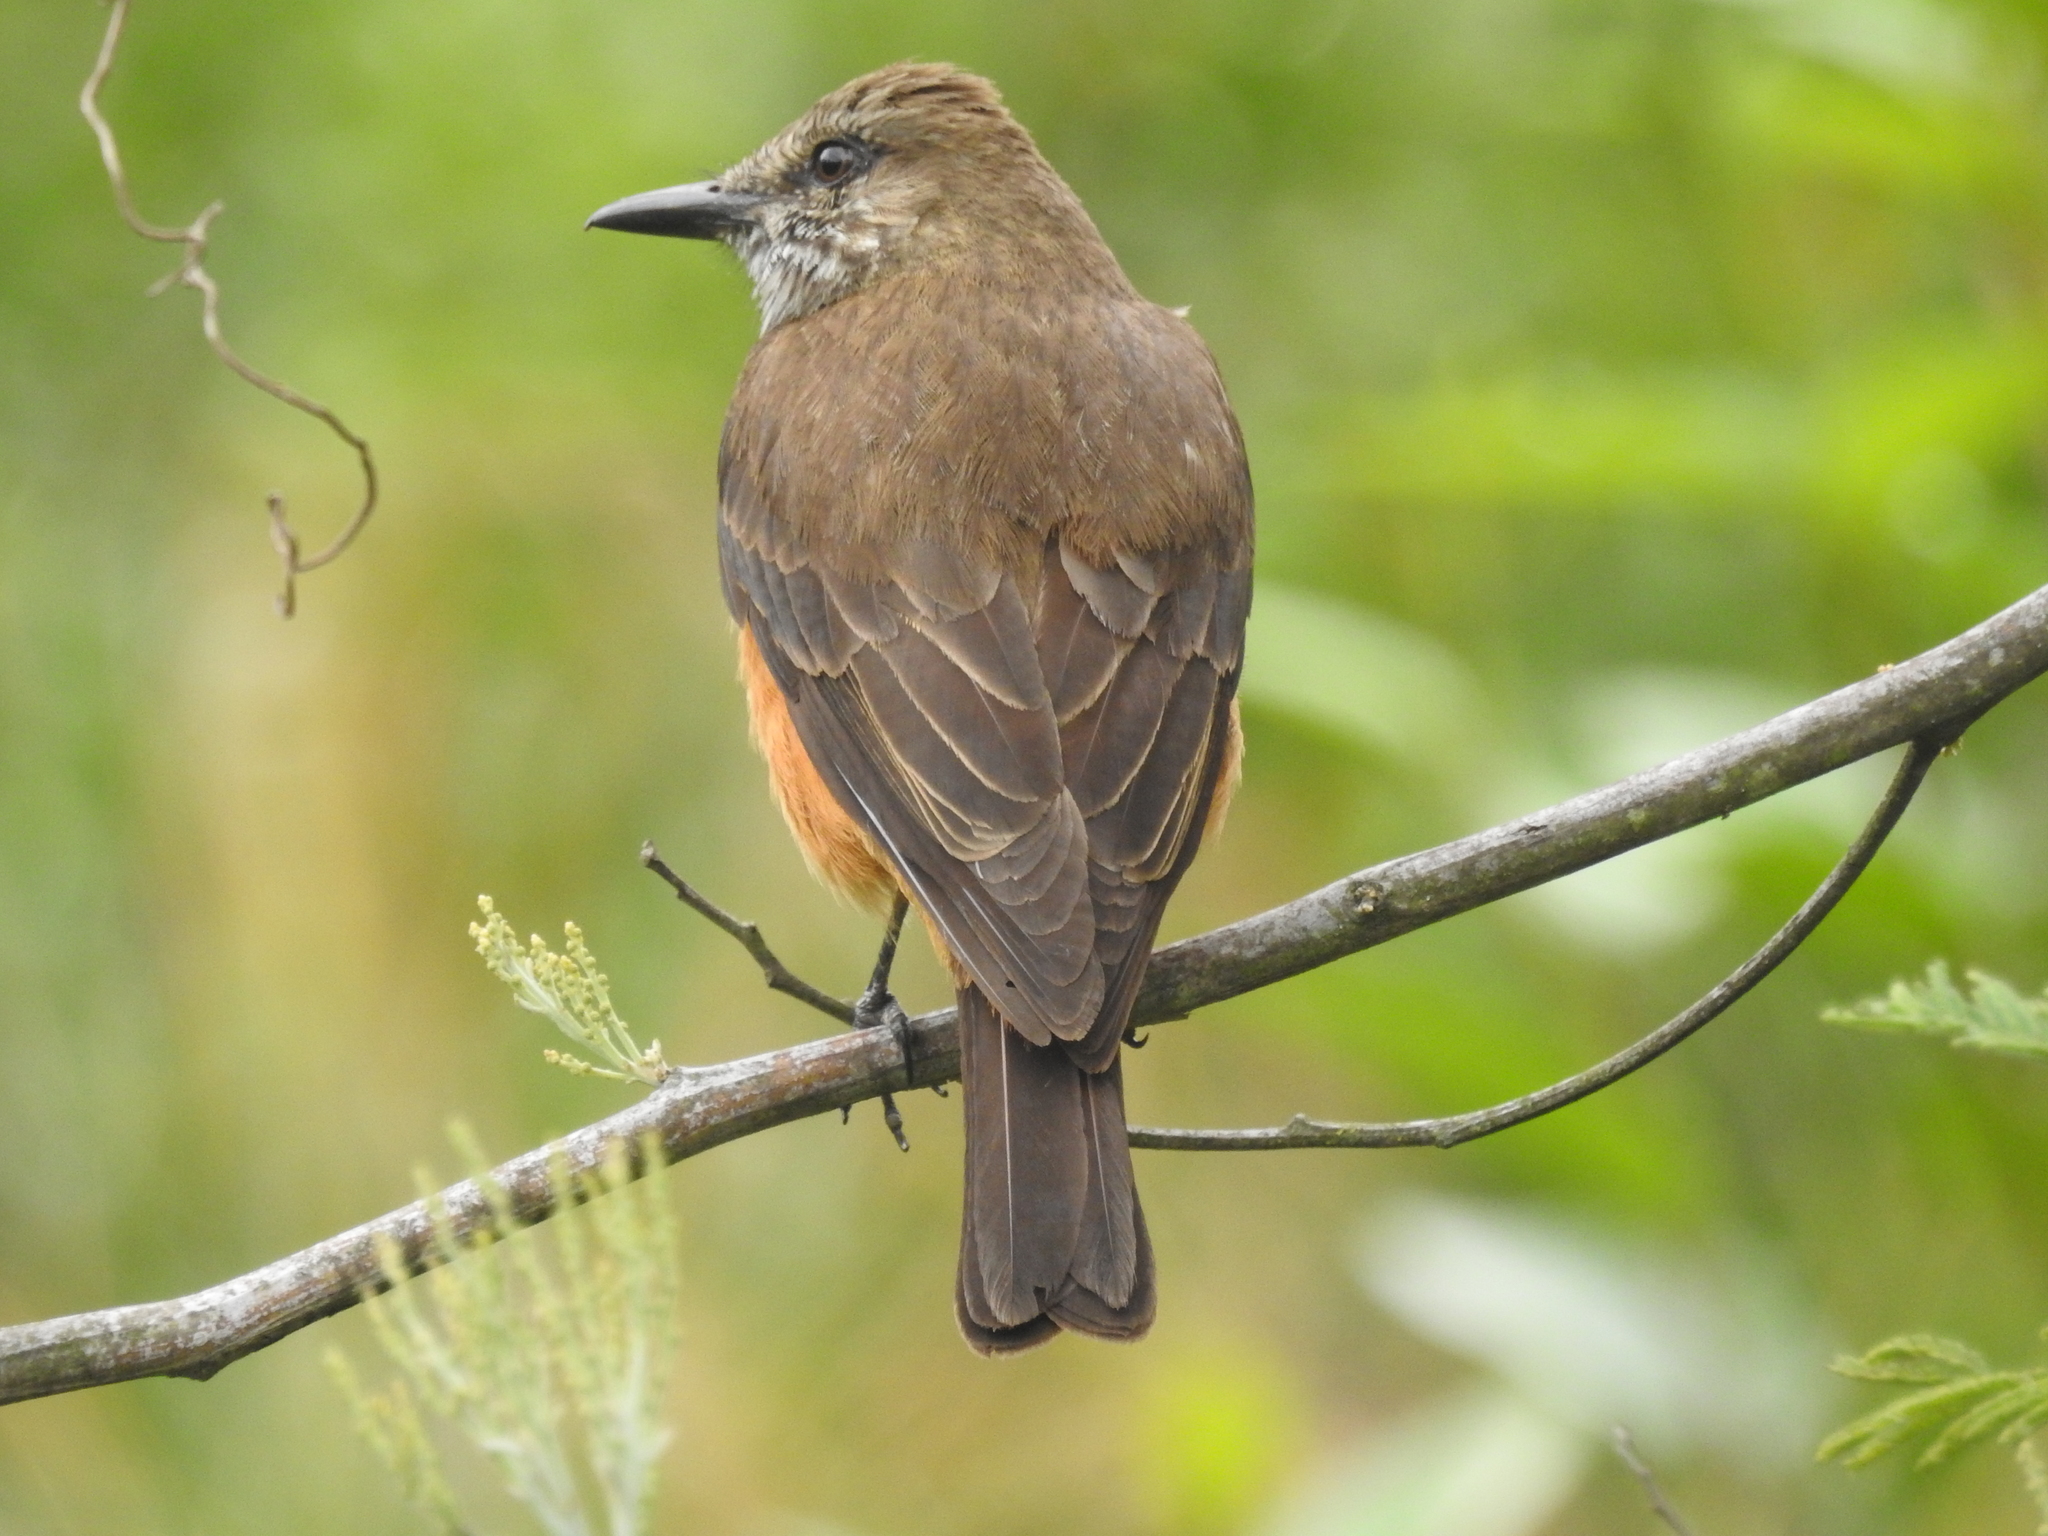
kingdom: Animalia
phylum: Chordata
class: Aves
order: Passeriformes
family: Tyrannidae
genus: Myiotheretes
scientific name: Myiotheretes striaticollis
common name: Streak-throated bush tyrant
